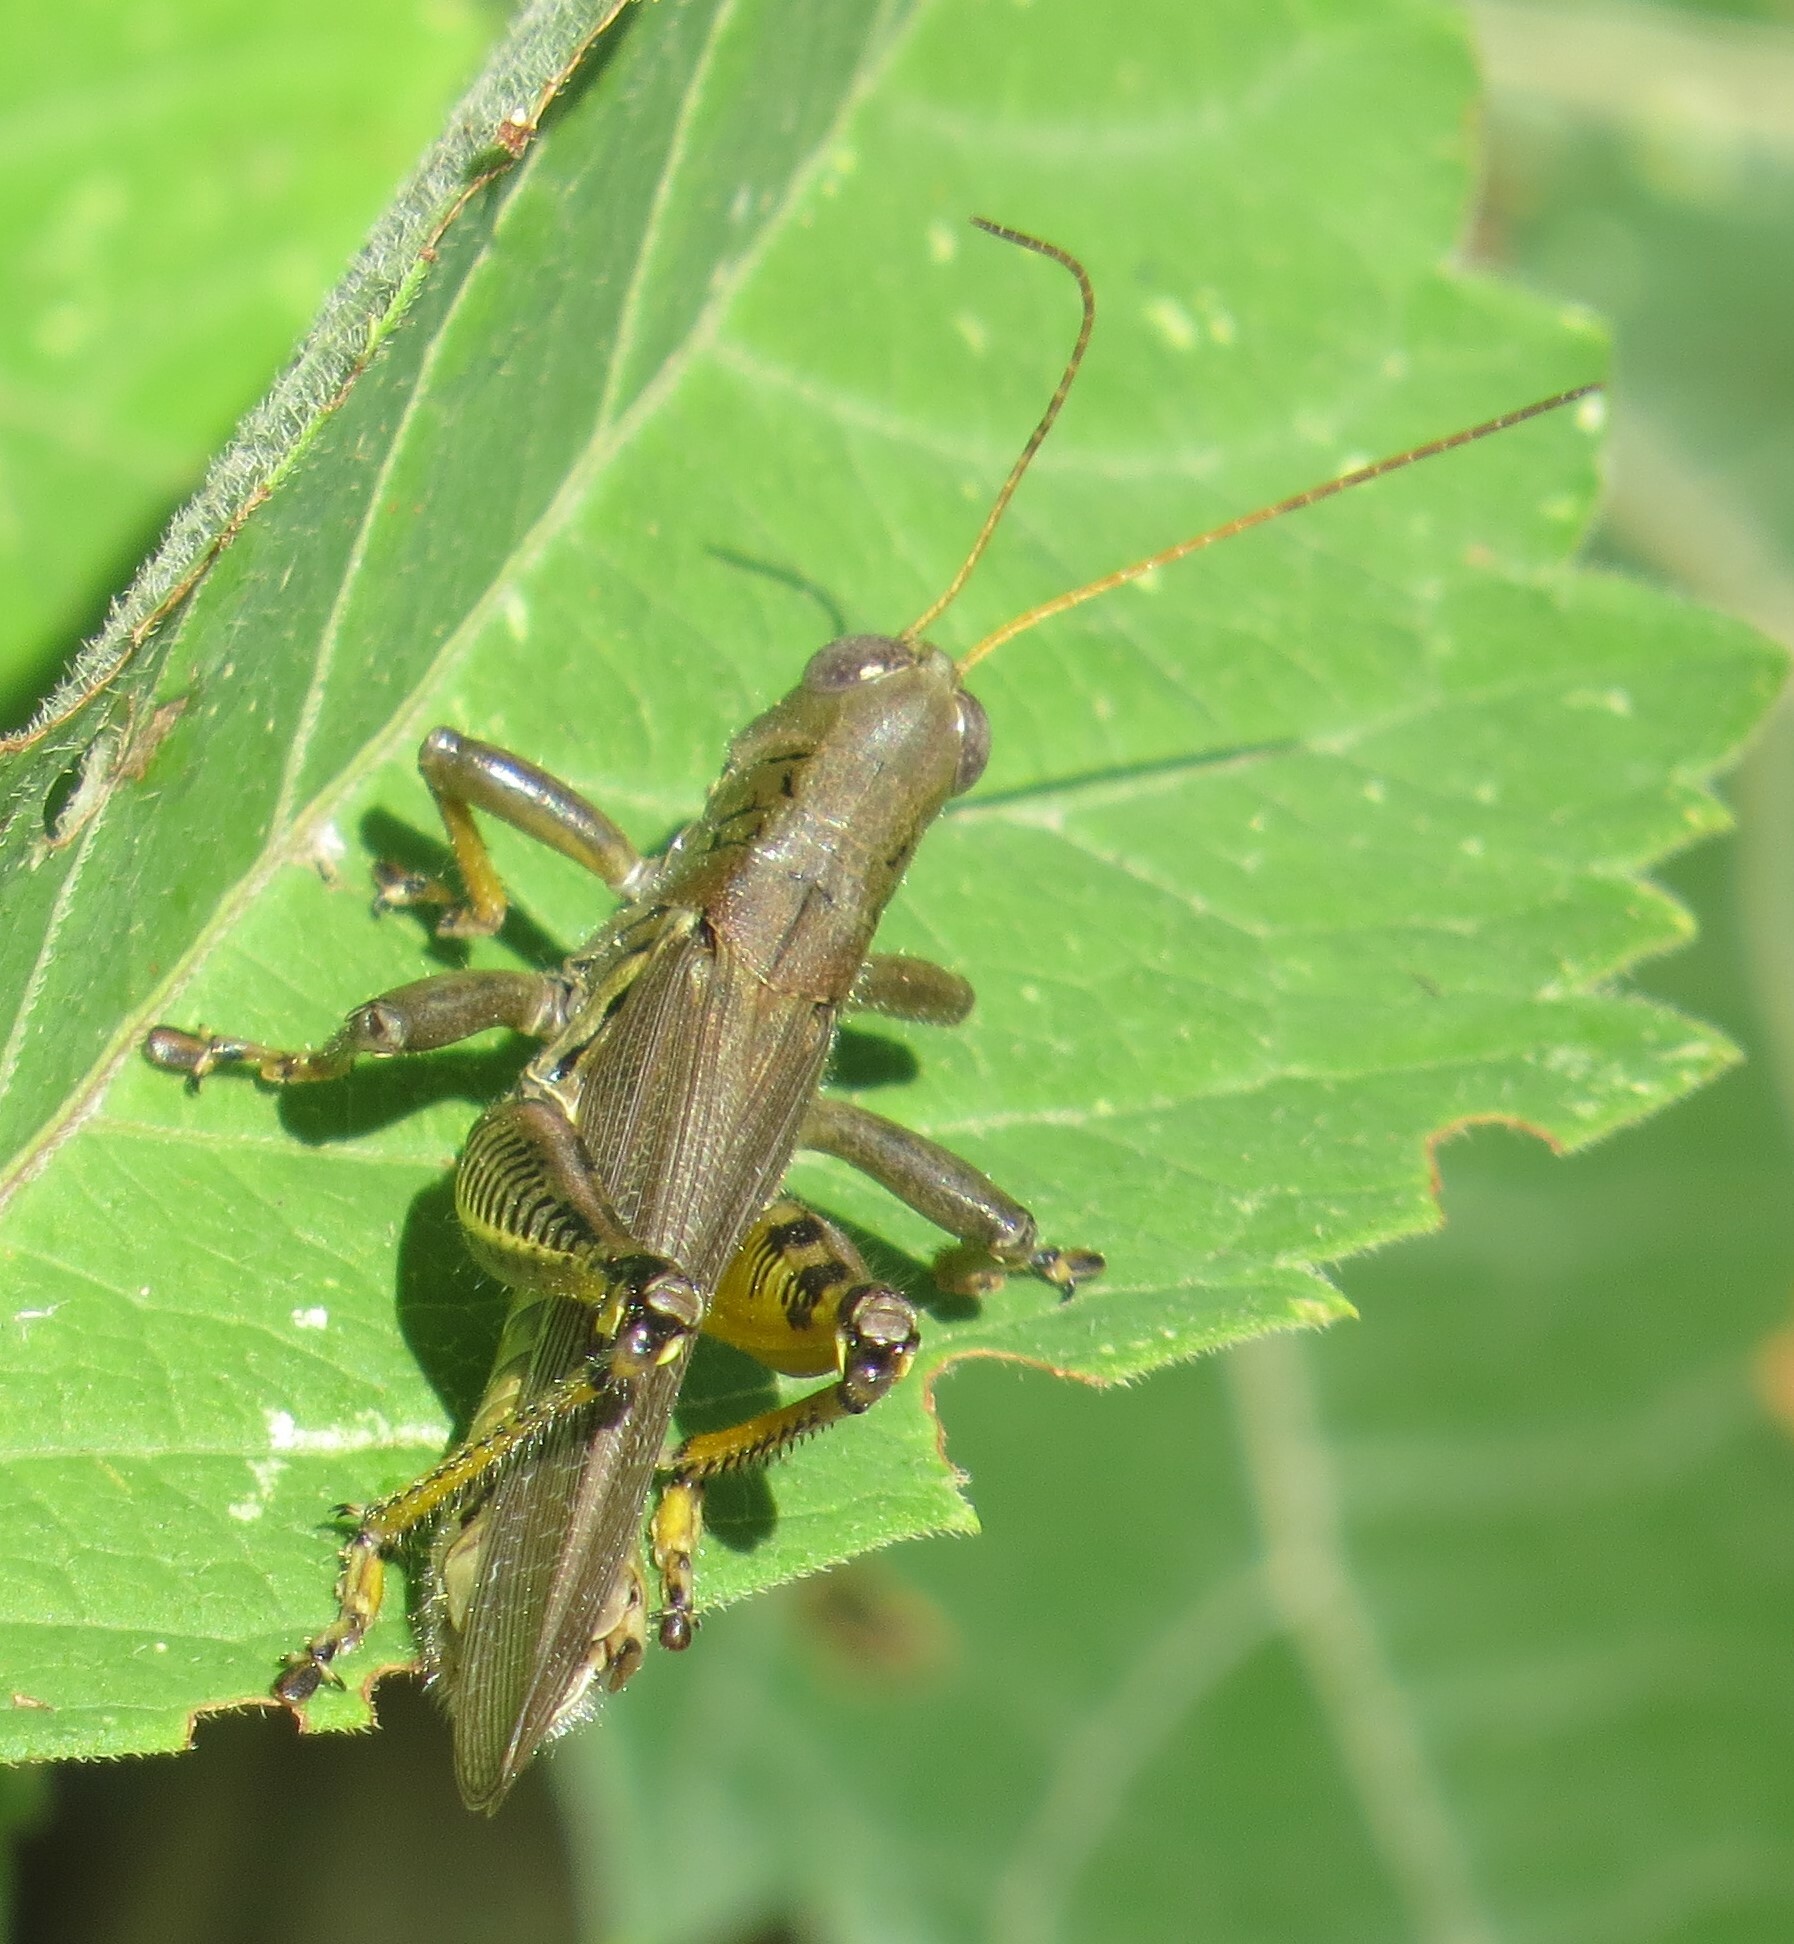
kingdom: Animalia
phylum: Arthropoda
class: Insecta
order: Orthoptera
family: Acrididae
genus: Melanoplus
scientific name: Melanoplus differentialis
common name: Differential grasshopper
